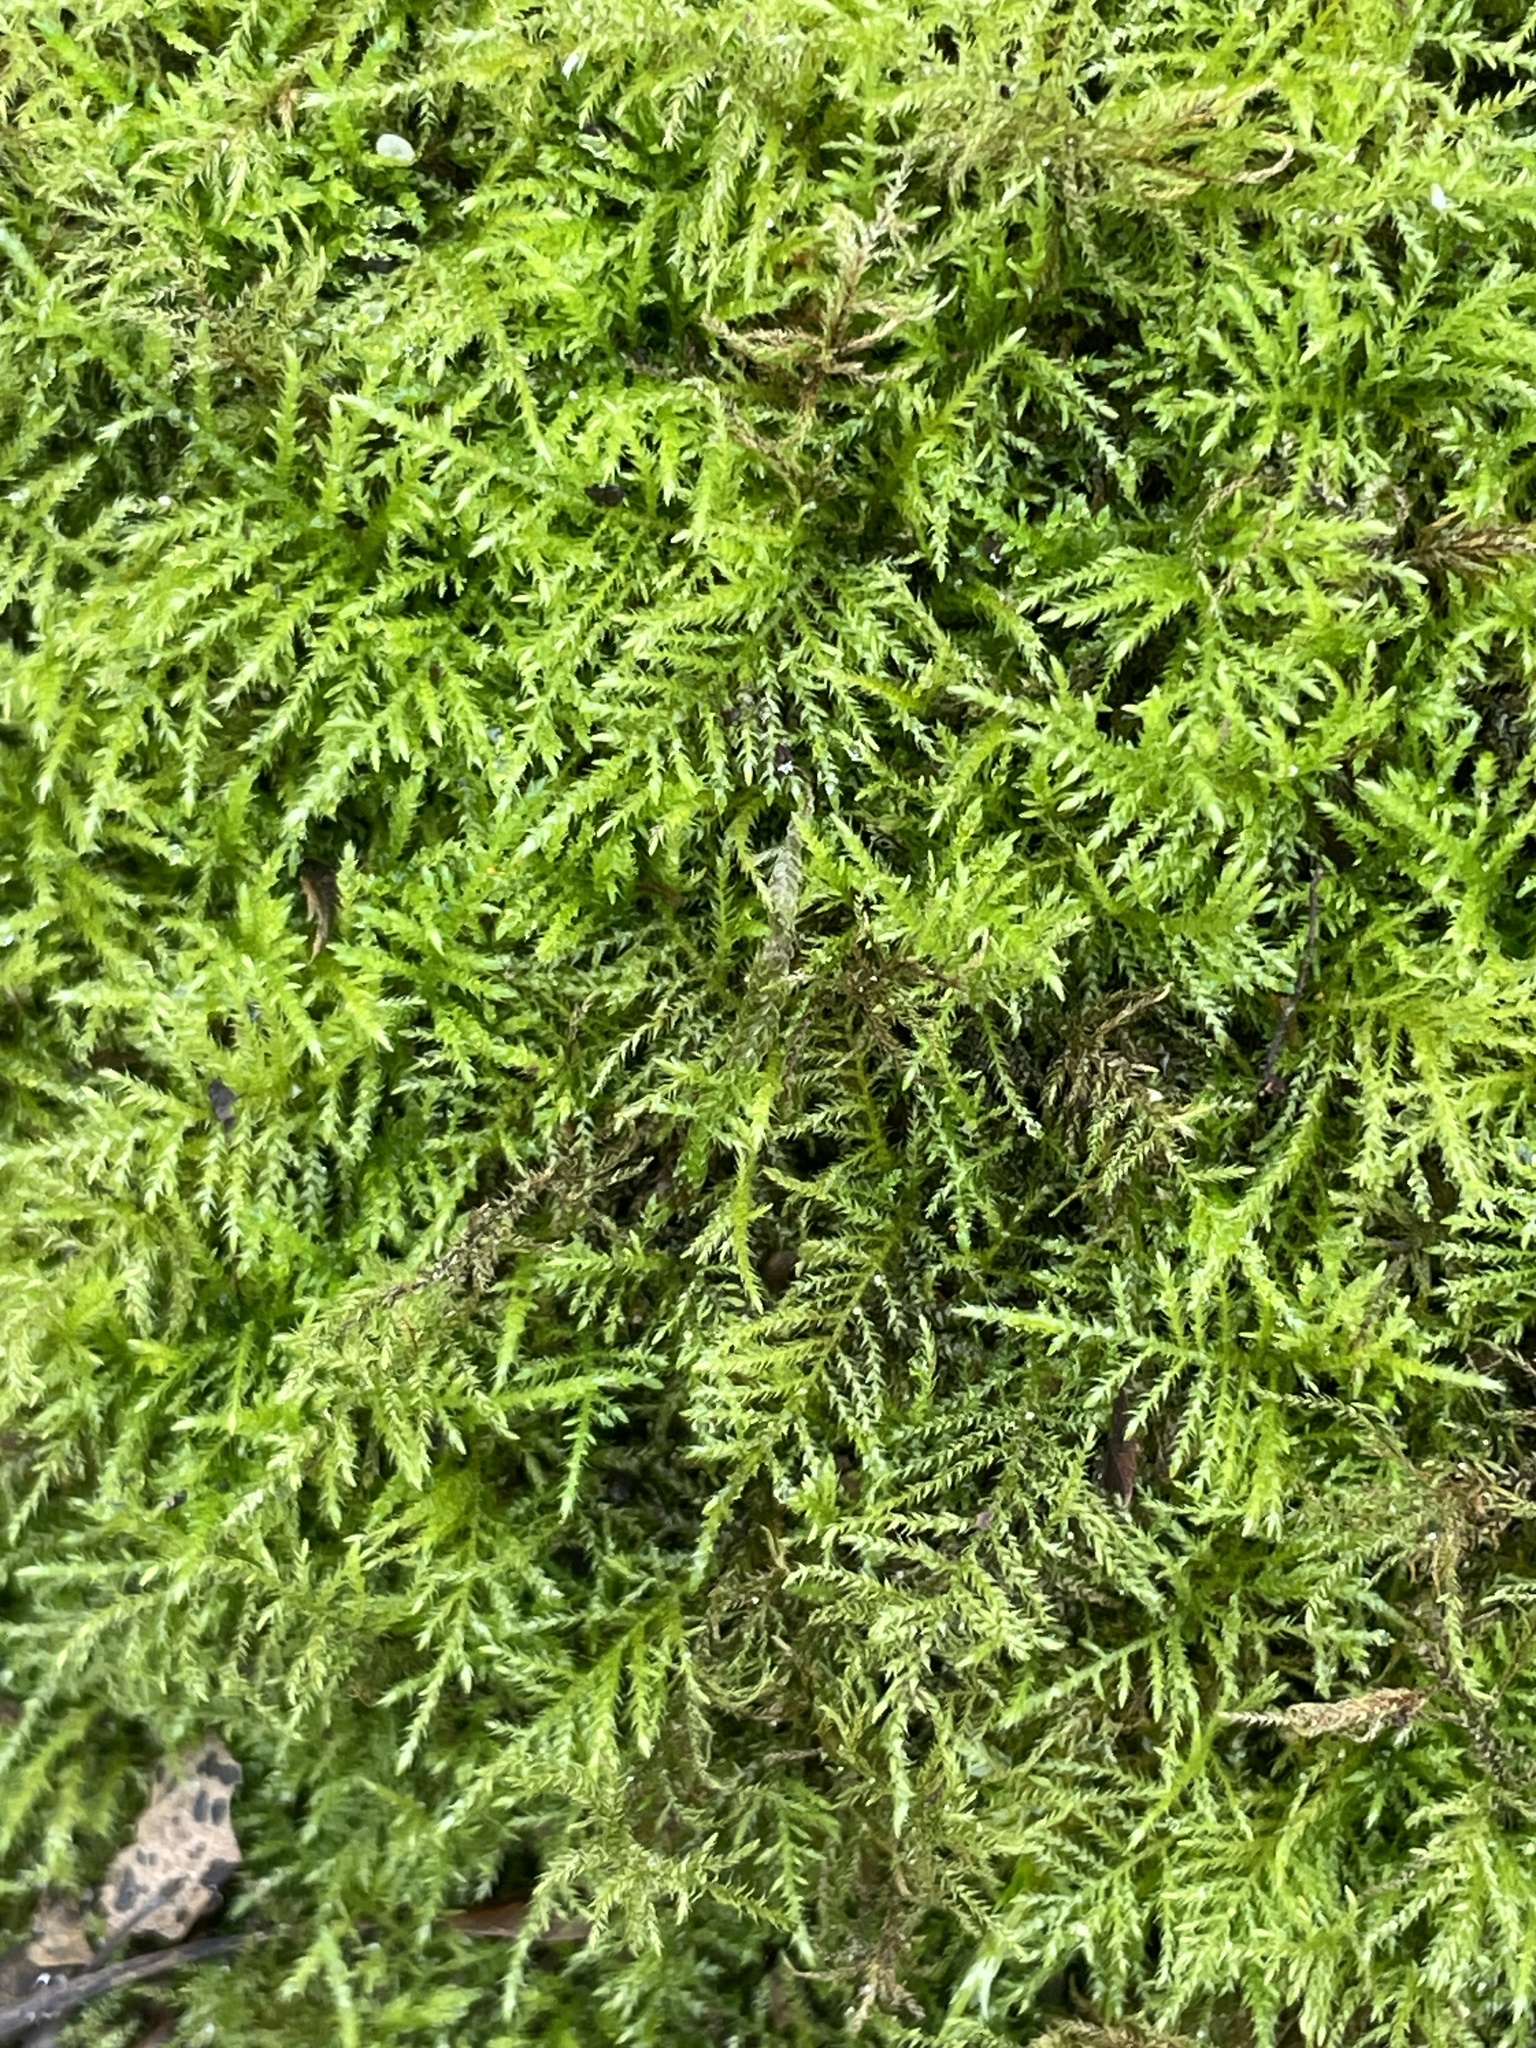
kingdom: Plantae
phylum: Bryophyta
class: Bryopsida
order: Hypnales
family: Brachytheciaceae
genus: Kindbergia
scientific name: Kindbergia praelonga
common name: Slender beaked moss
